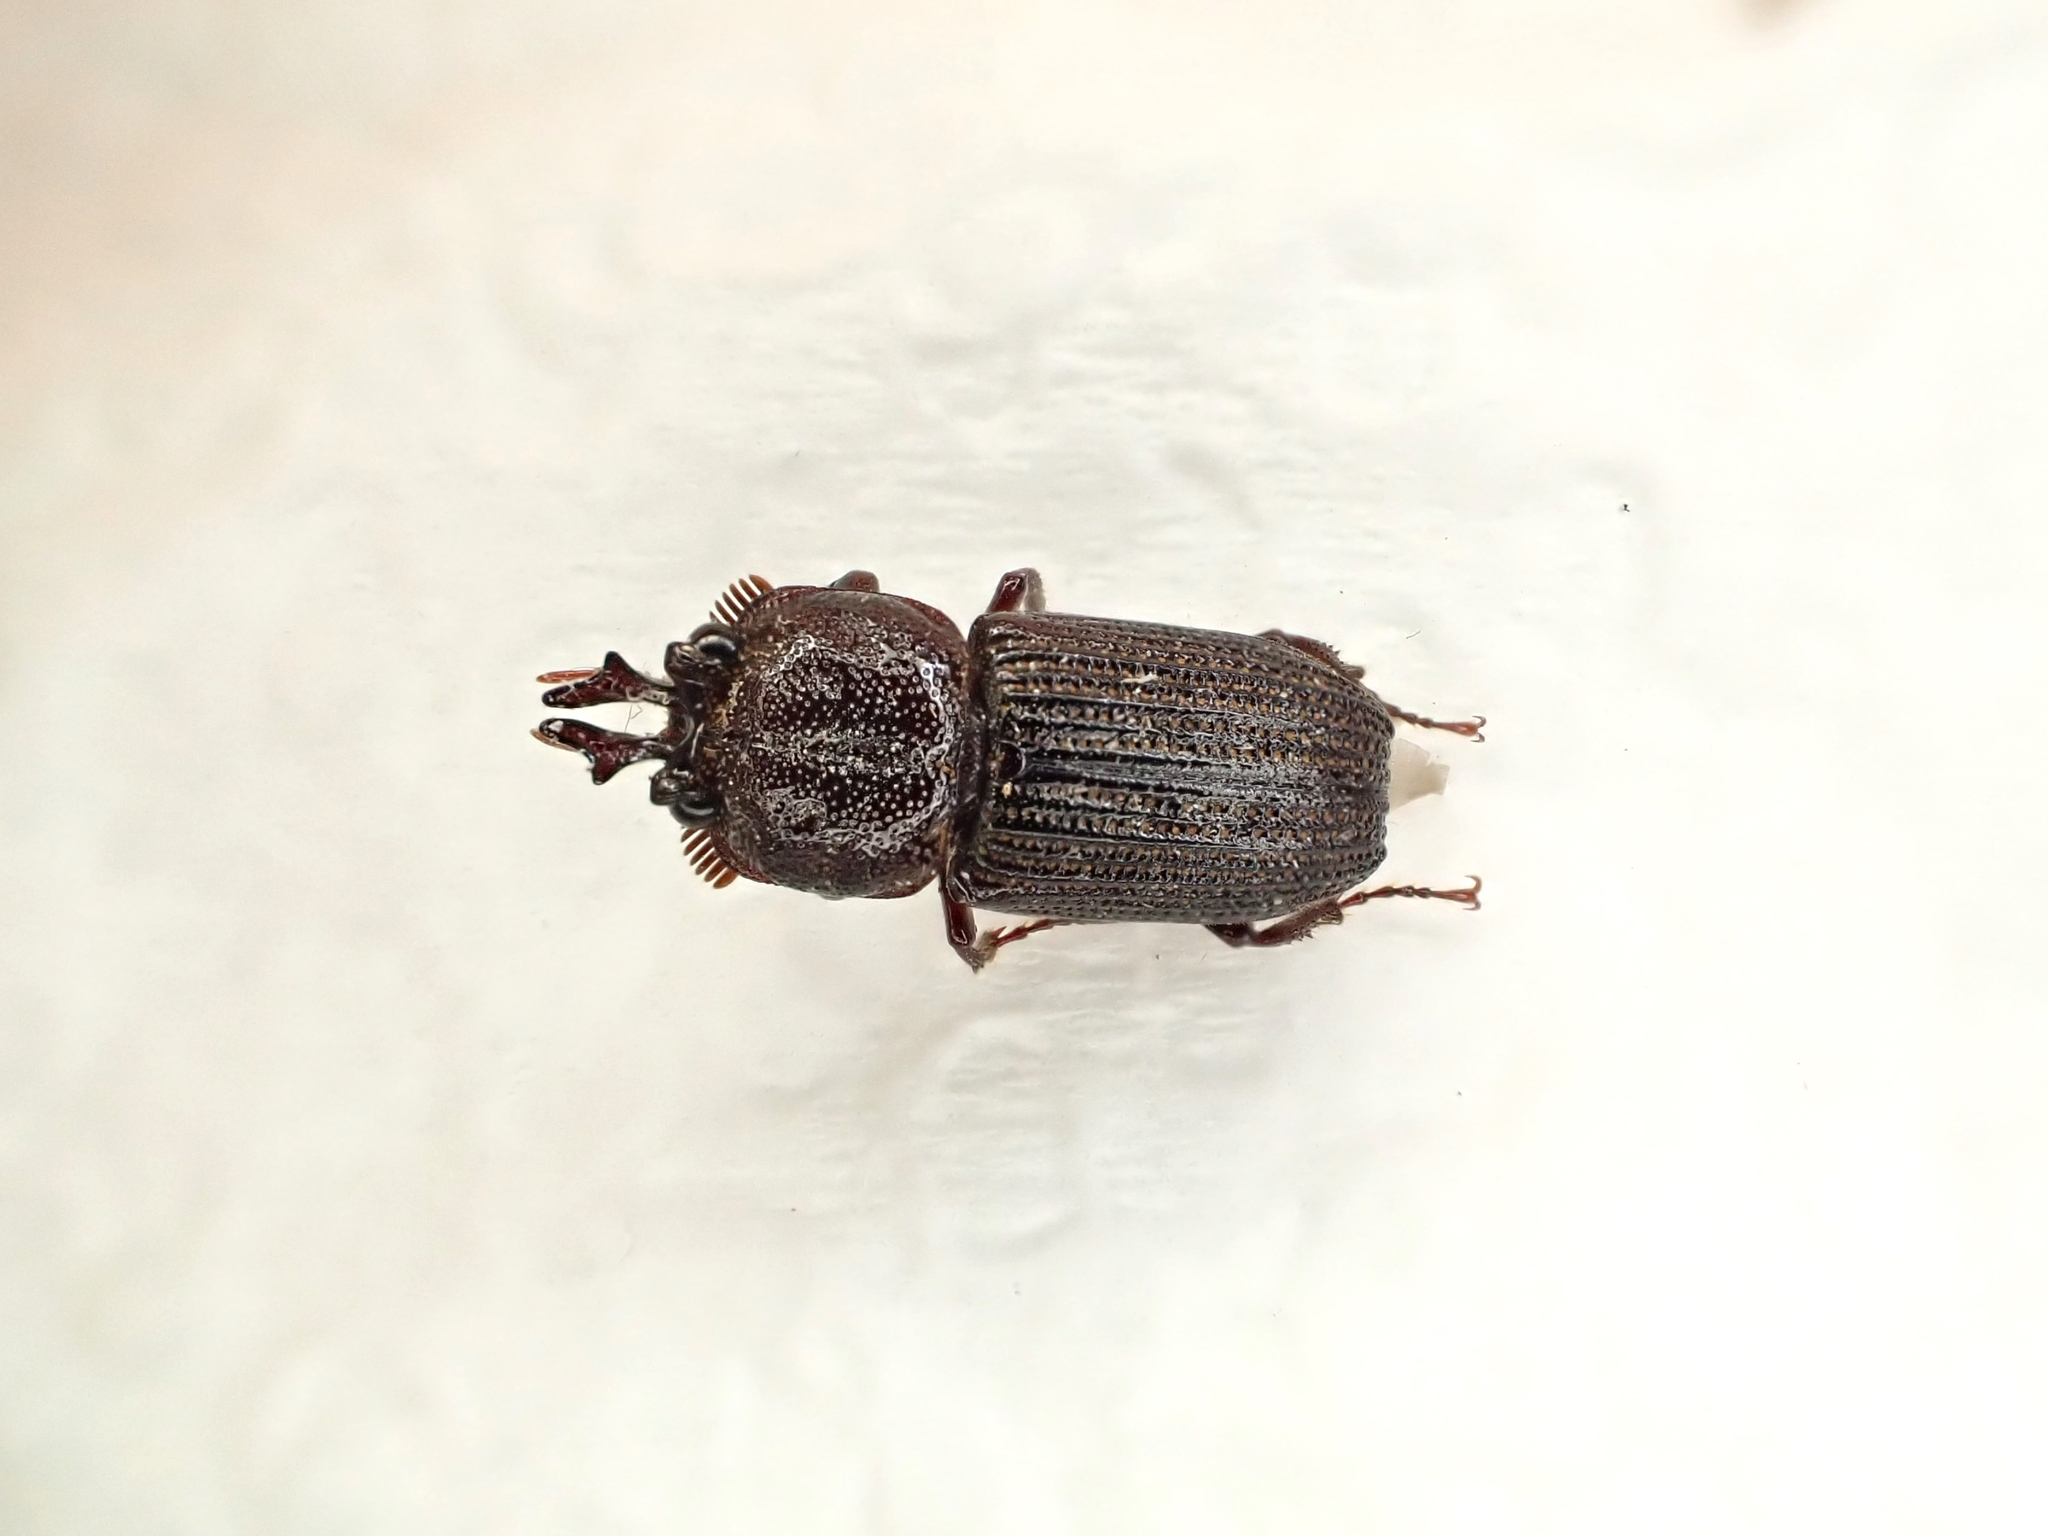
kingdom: Animalia
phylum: Arthropoda
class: Insecta
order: Coleoptera
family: Lucanidae
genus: Syndesus
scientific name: Syndesus cornutus
